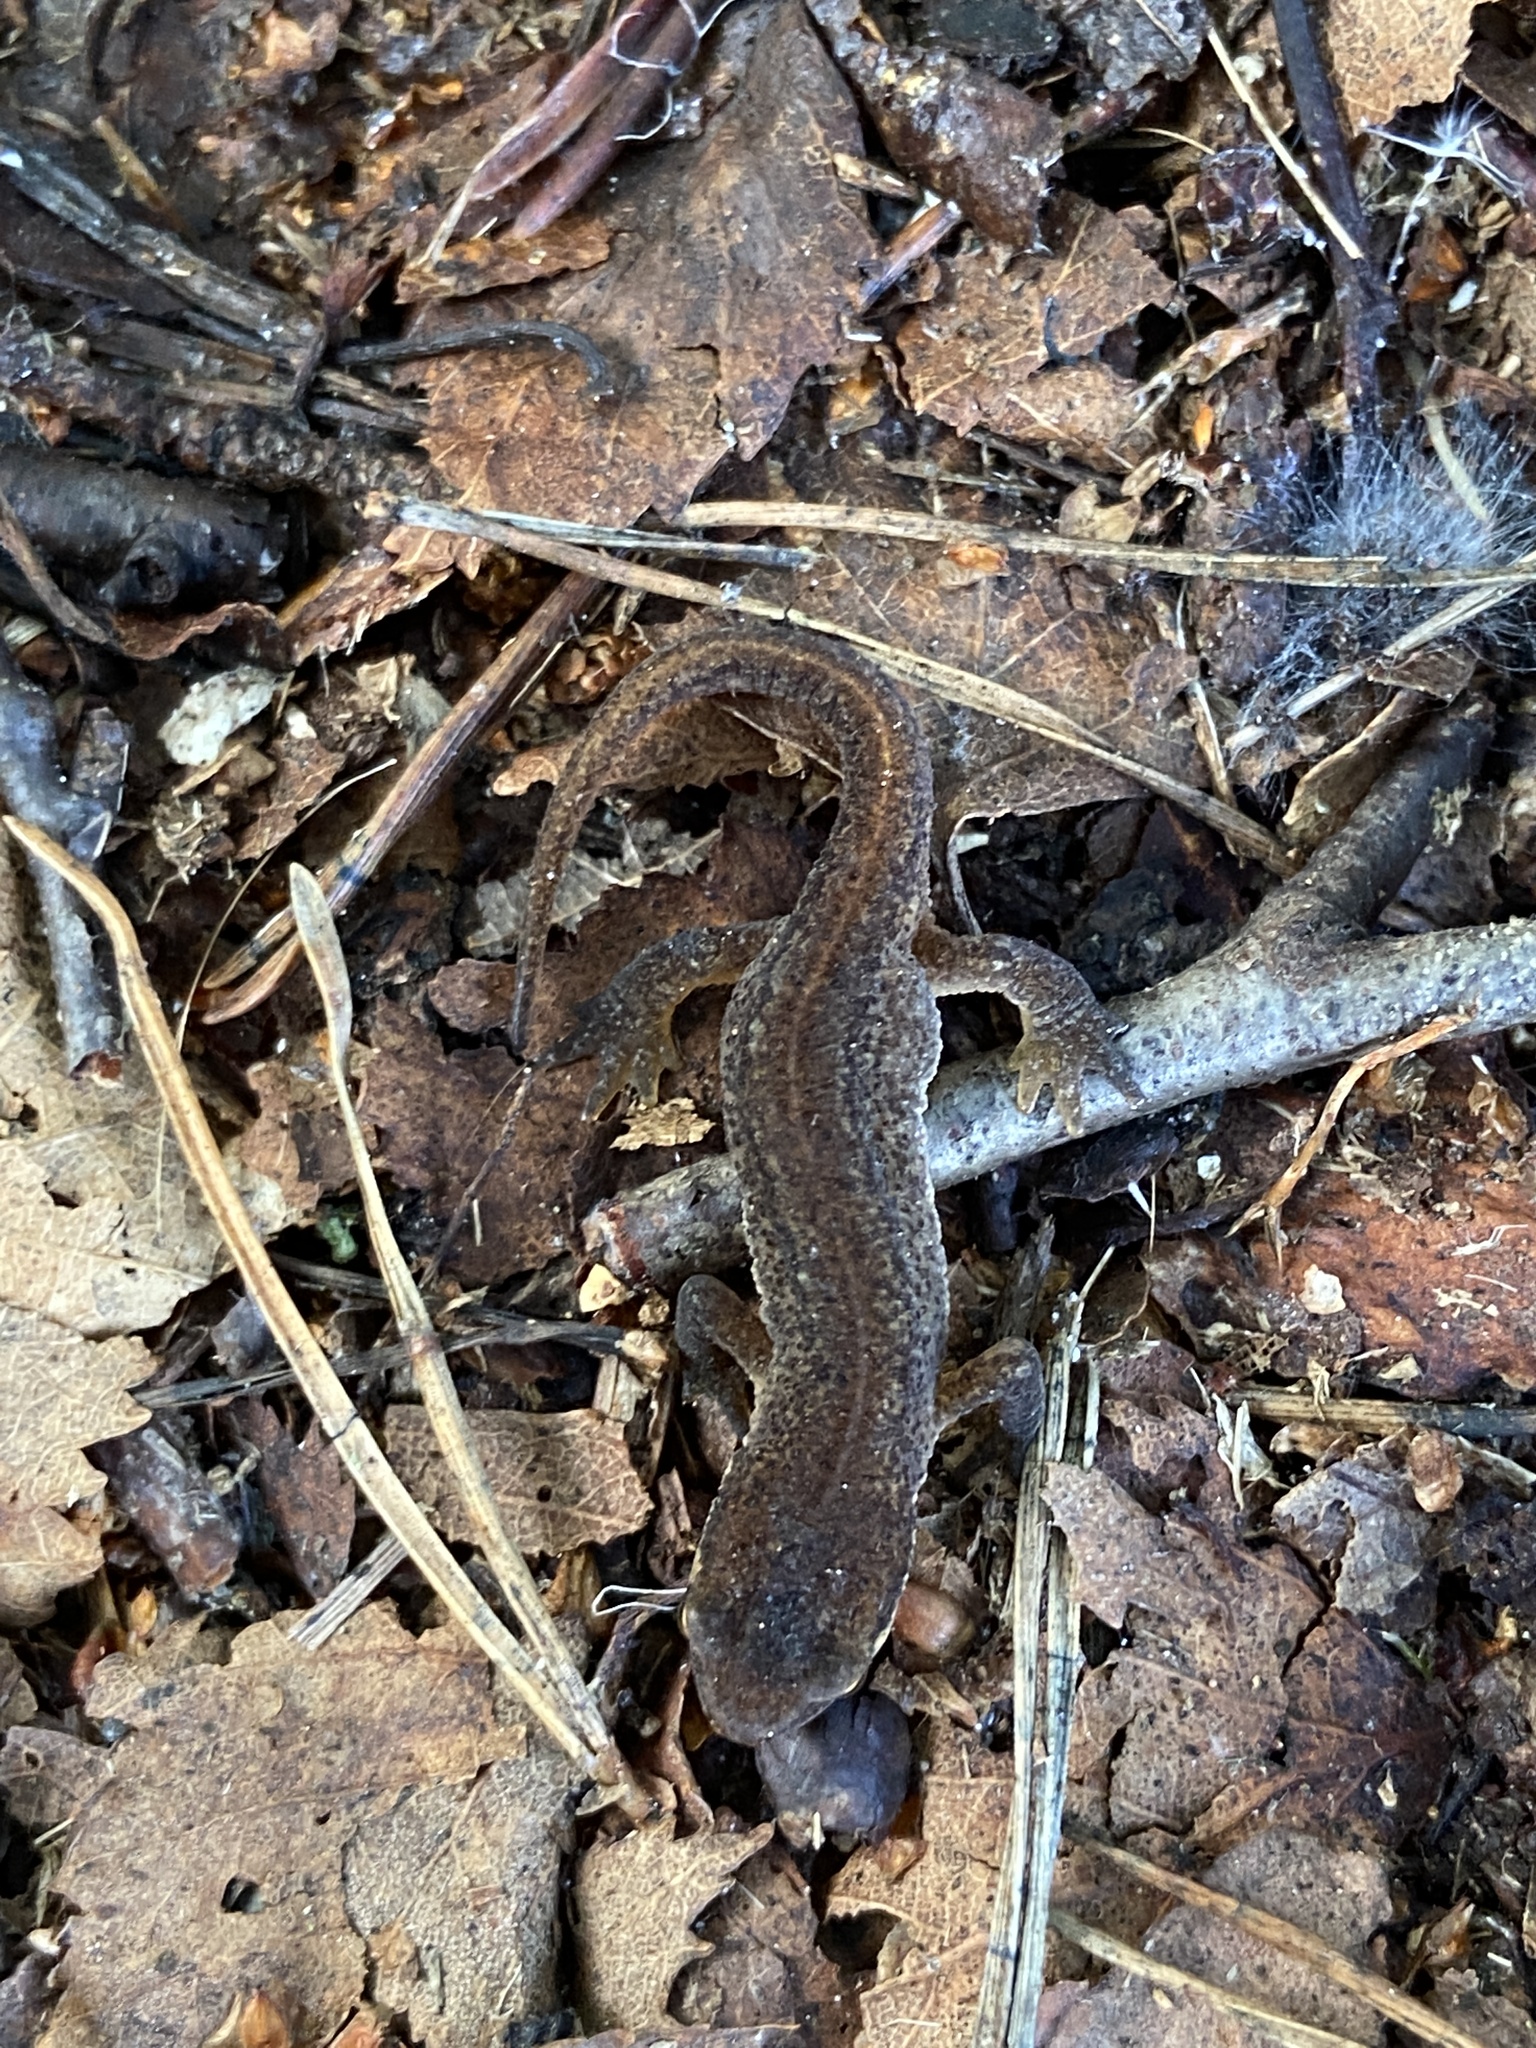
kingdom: Animalia
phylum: Chordata
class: Amphibia
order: Caudata
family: Salamandridae
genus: Lissotriton
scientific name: Lissotriton vulgaris
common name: Smooth newt
